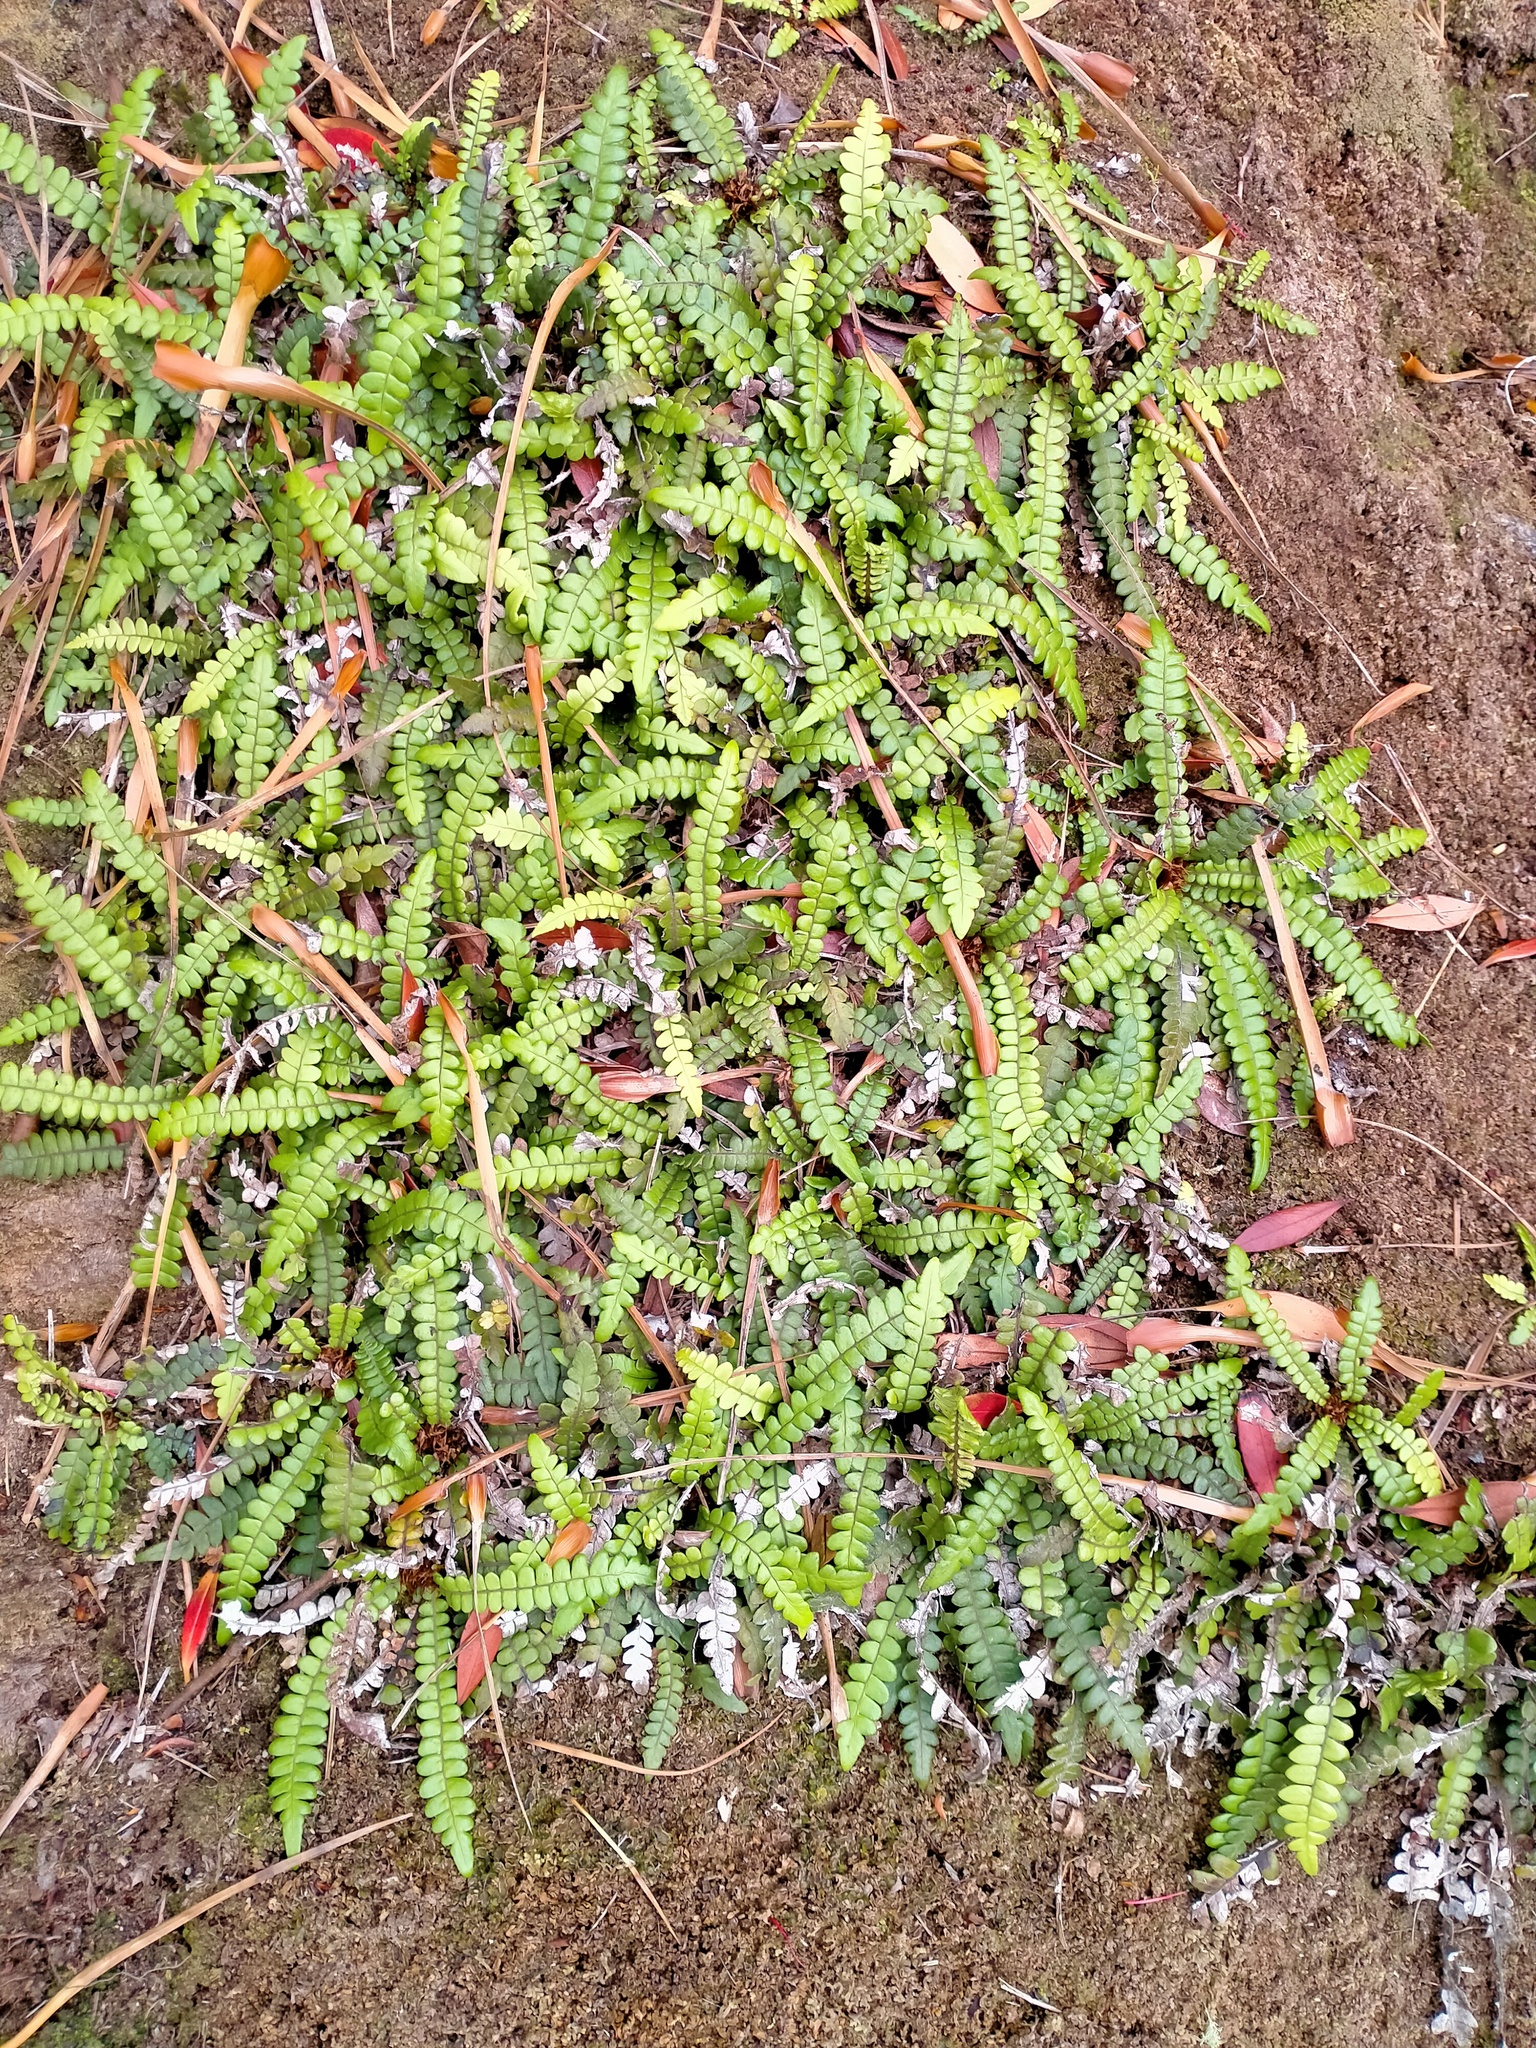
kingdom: Plantae
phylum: Tracheophyta
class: Polypodiopsida
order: Polypodiales
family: Blechnaceae
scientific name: Blechnaceae
